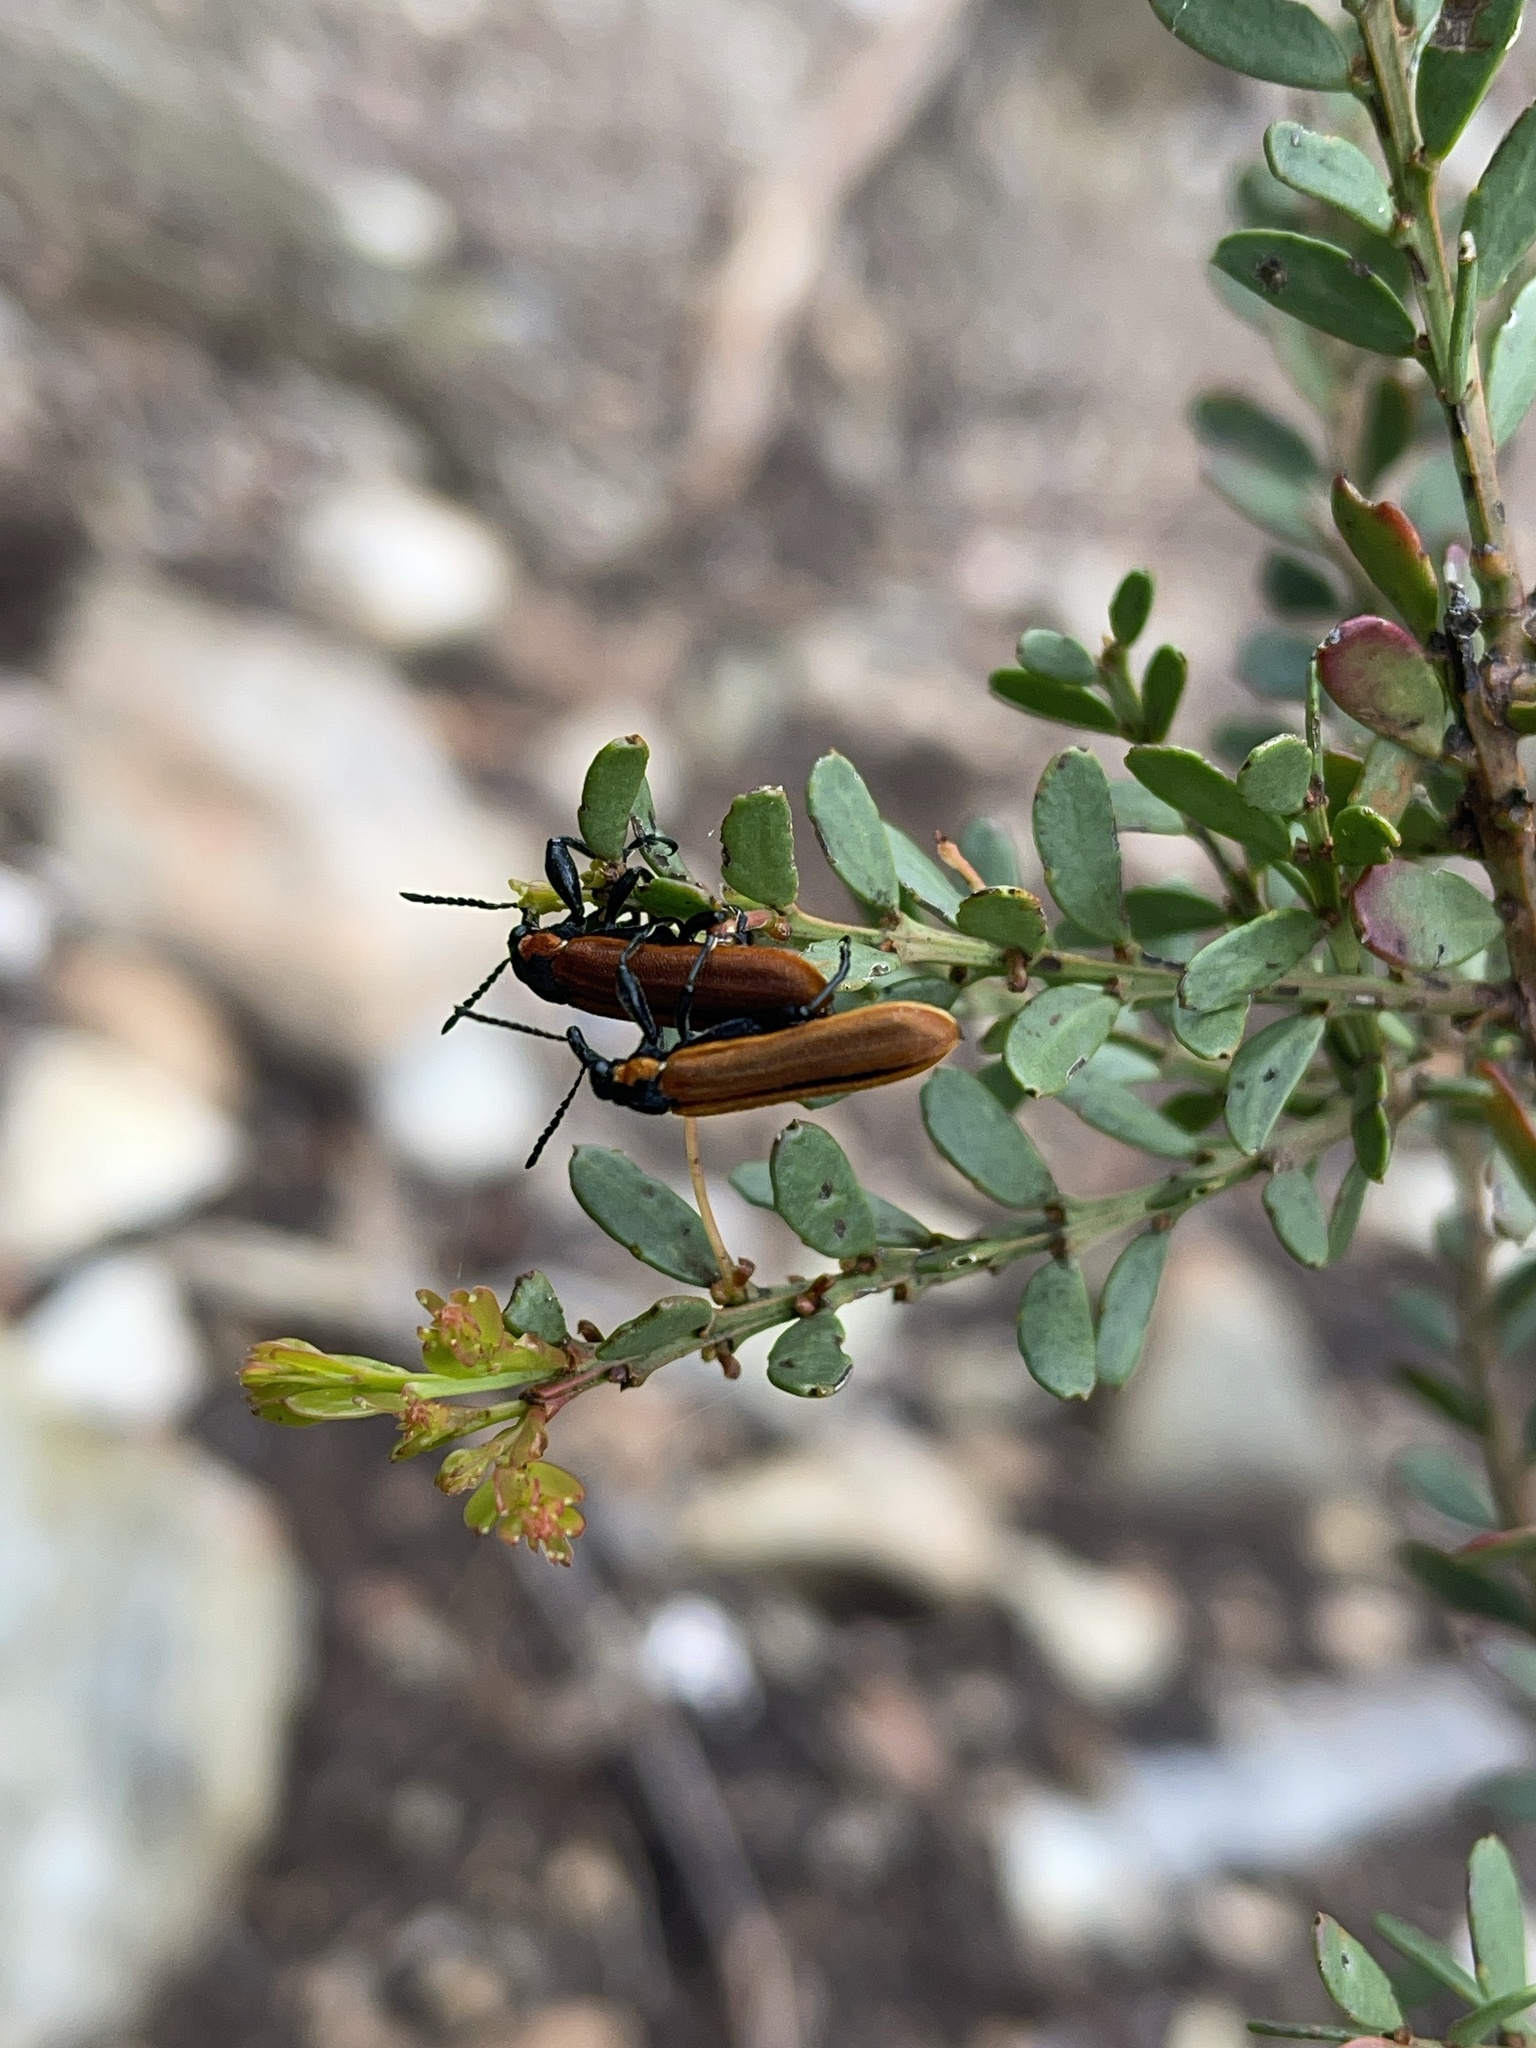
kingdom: Animalia
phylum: Arthropoda
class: Insecta
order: Coleoptera
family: Belidae
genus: Rhinotia
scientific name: Rhinotia haemoptera
